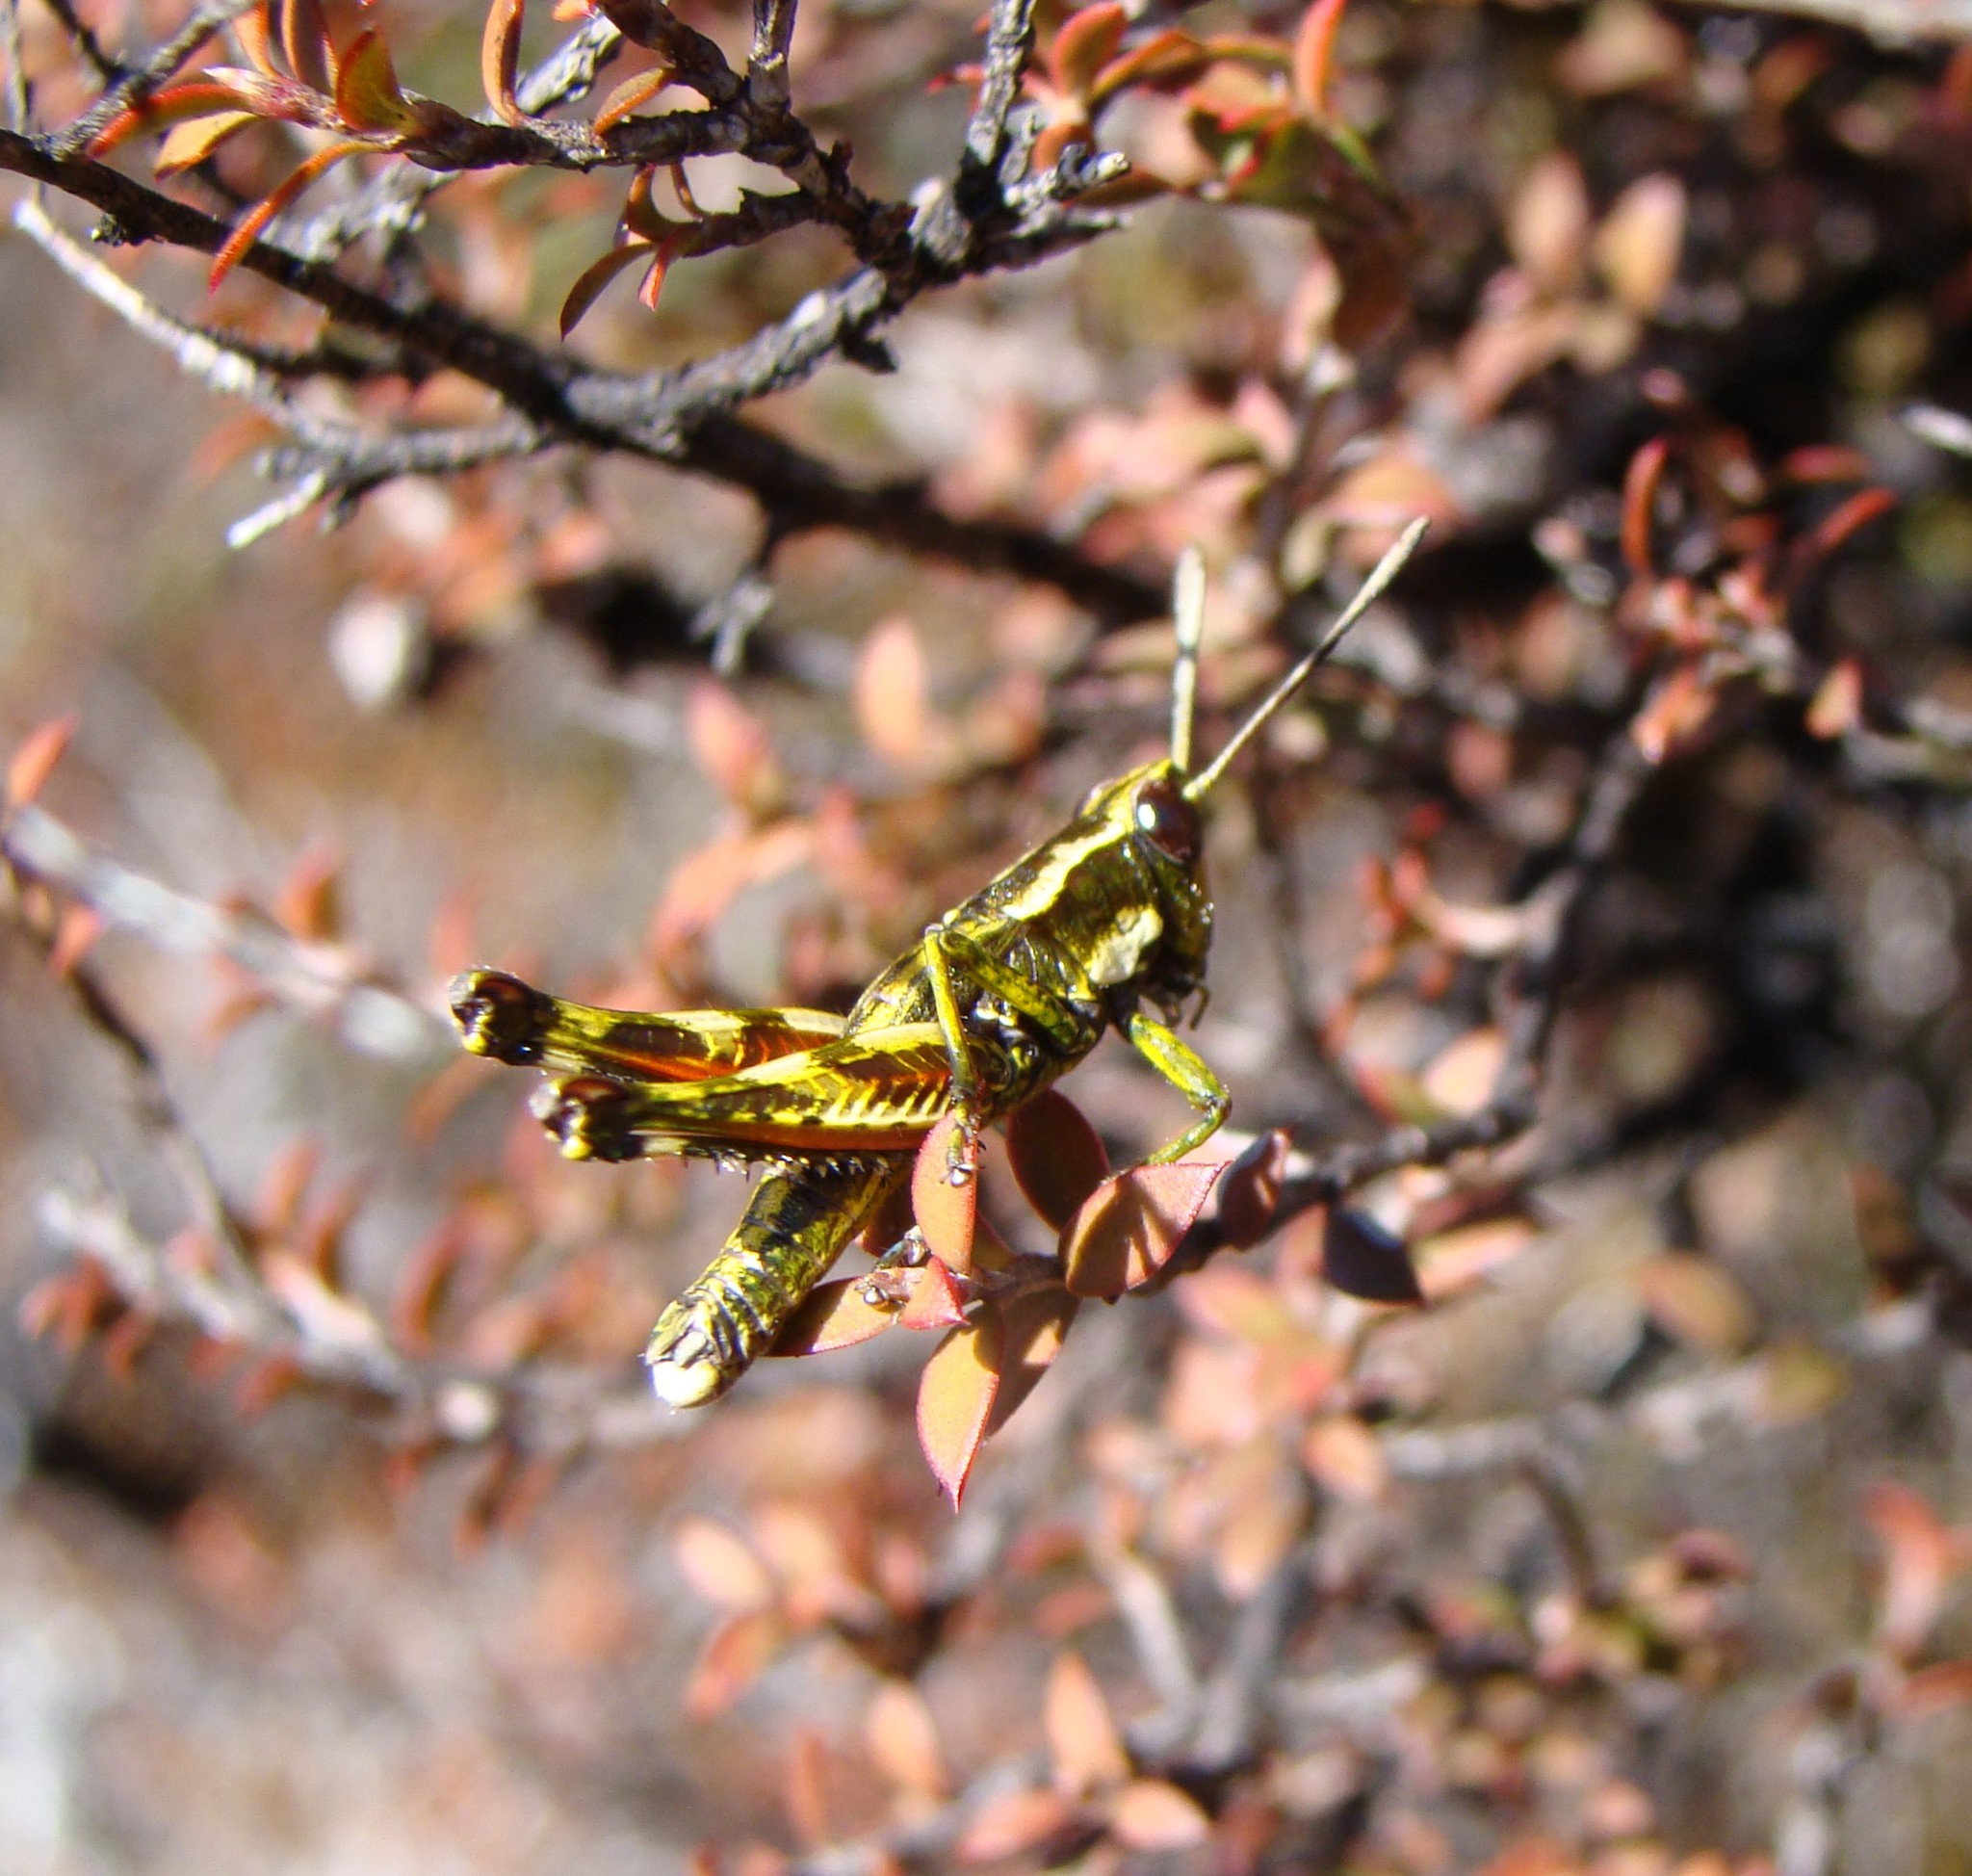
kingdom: Animalia
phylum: Arthropoda
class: Insecta
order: Orthoptera
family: Acrididae
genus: Sigaus
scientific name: Sigaus piliferus
